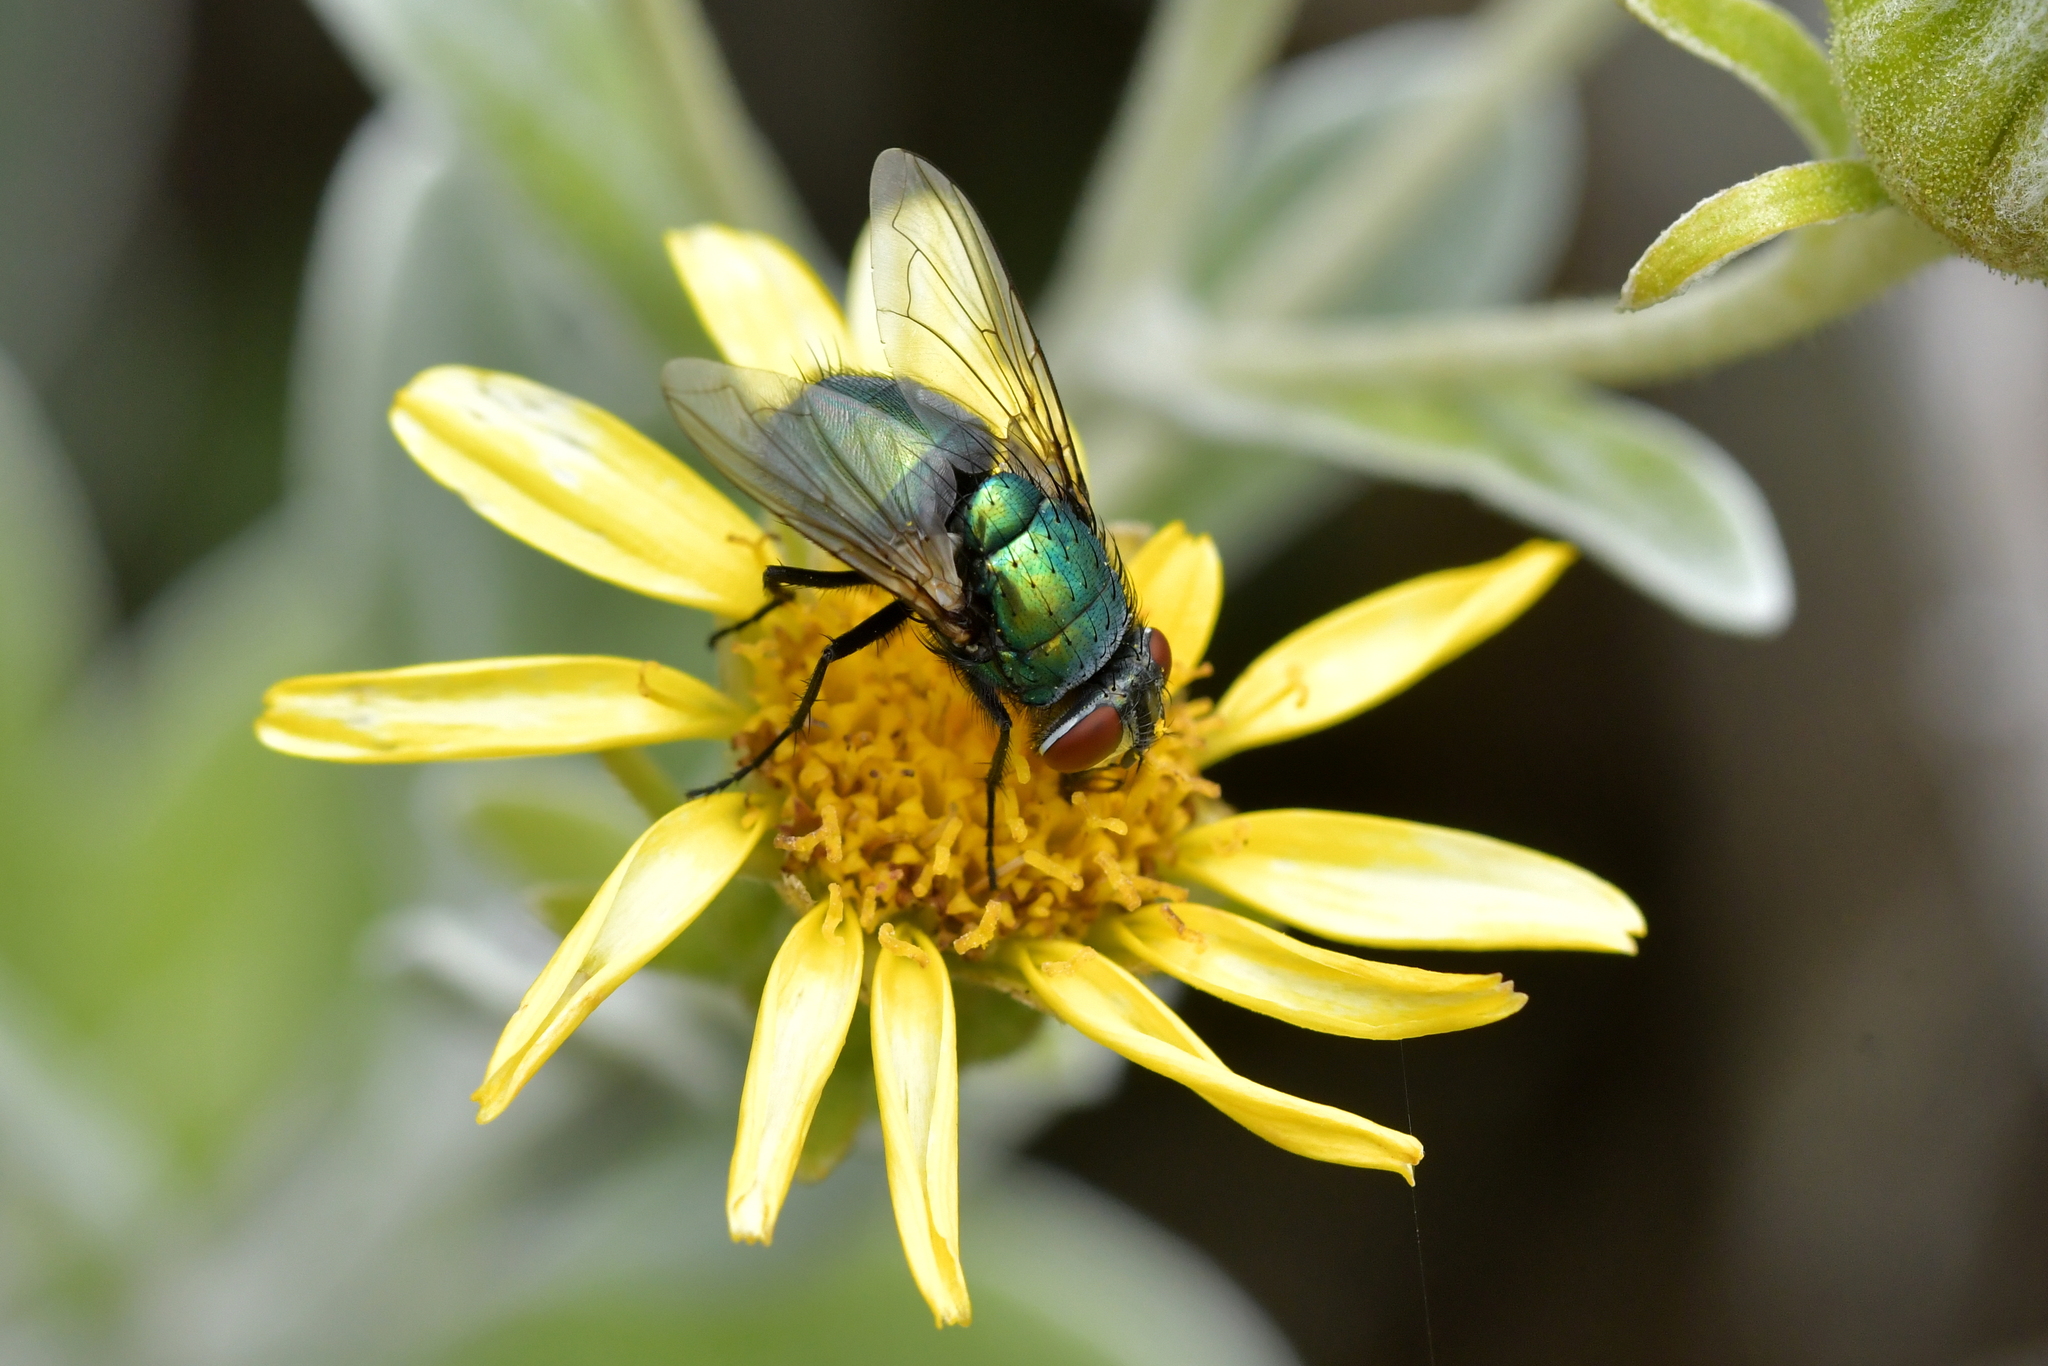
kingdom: Animalia
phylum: Arthropoda
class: Insecta
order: Diptera
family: Calliphoridae
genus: Lucilia
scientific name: Lucilia sericata
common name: Blow fly
